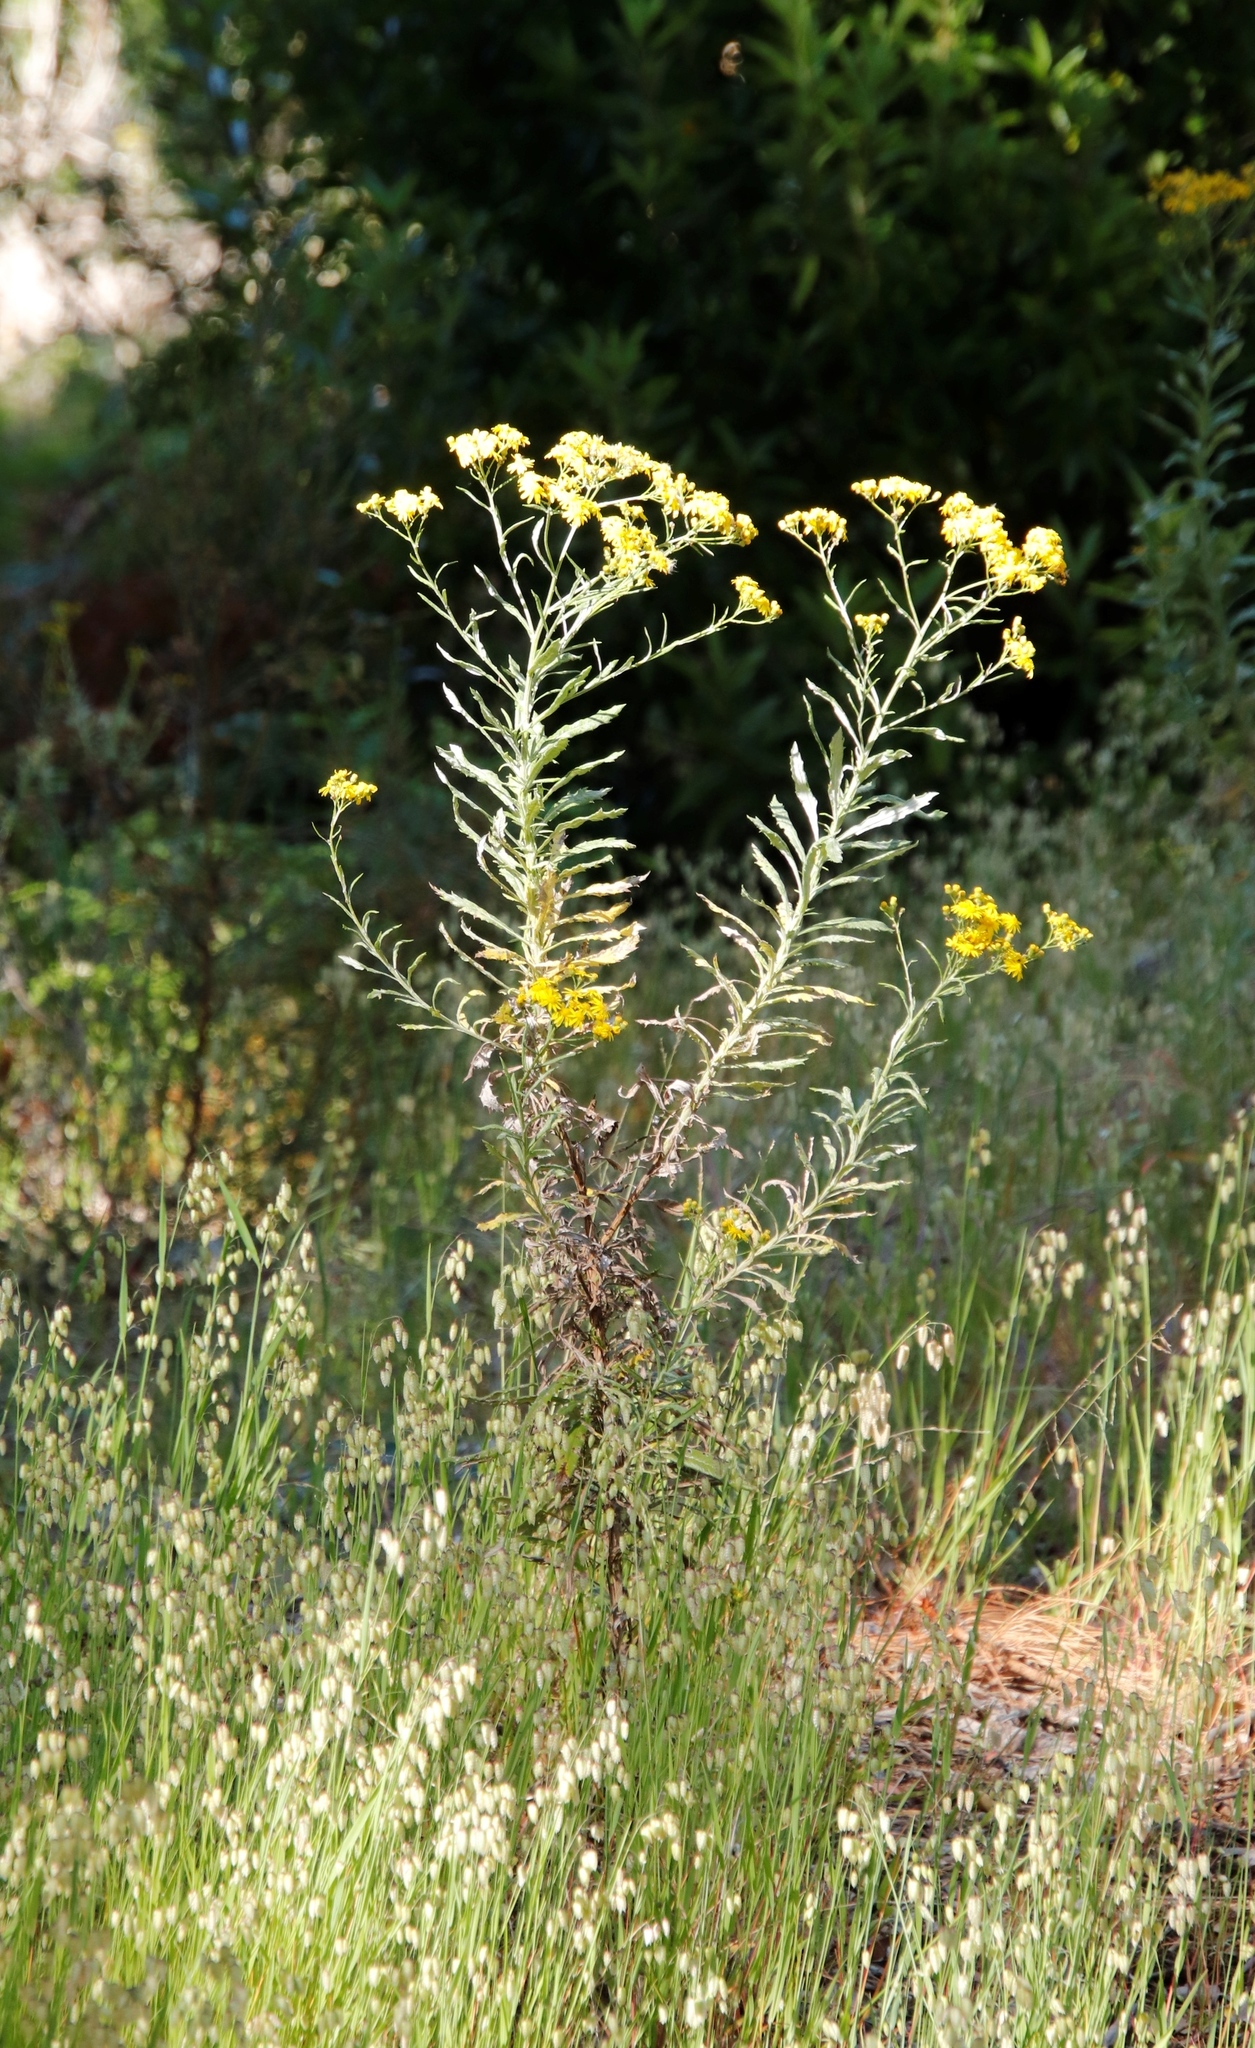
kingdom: Plantae
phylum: Tracheophyta
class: Magnoliopsida
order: Asterales
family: Asteraceae
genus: Senecio
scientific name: Senecio pterophorus
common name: Shoddy ragwort
